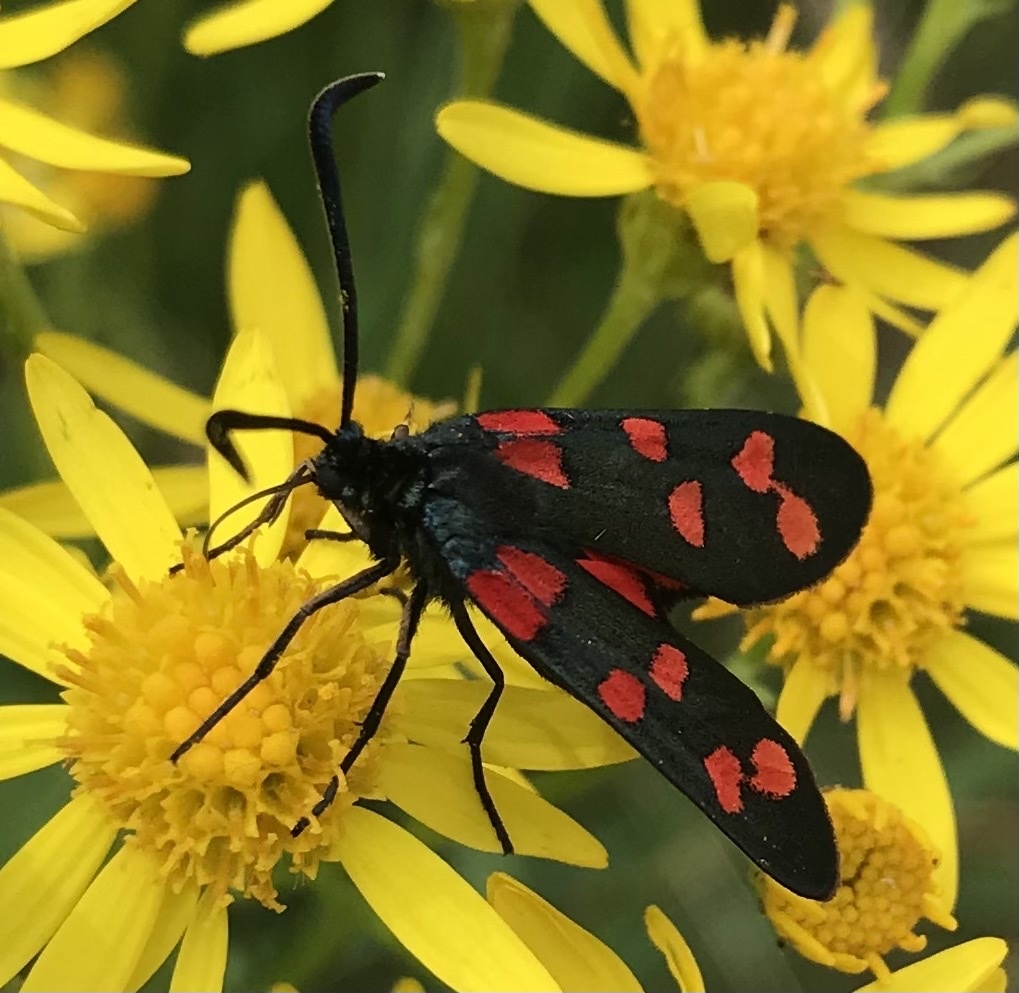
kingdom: Animalia
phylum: Arthropoda
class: Insecta
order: Lepidoptera
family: Zygaenidae
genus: Zygaena
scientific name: Zygaena transalpina
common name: Southern six spot burnet
